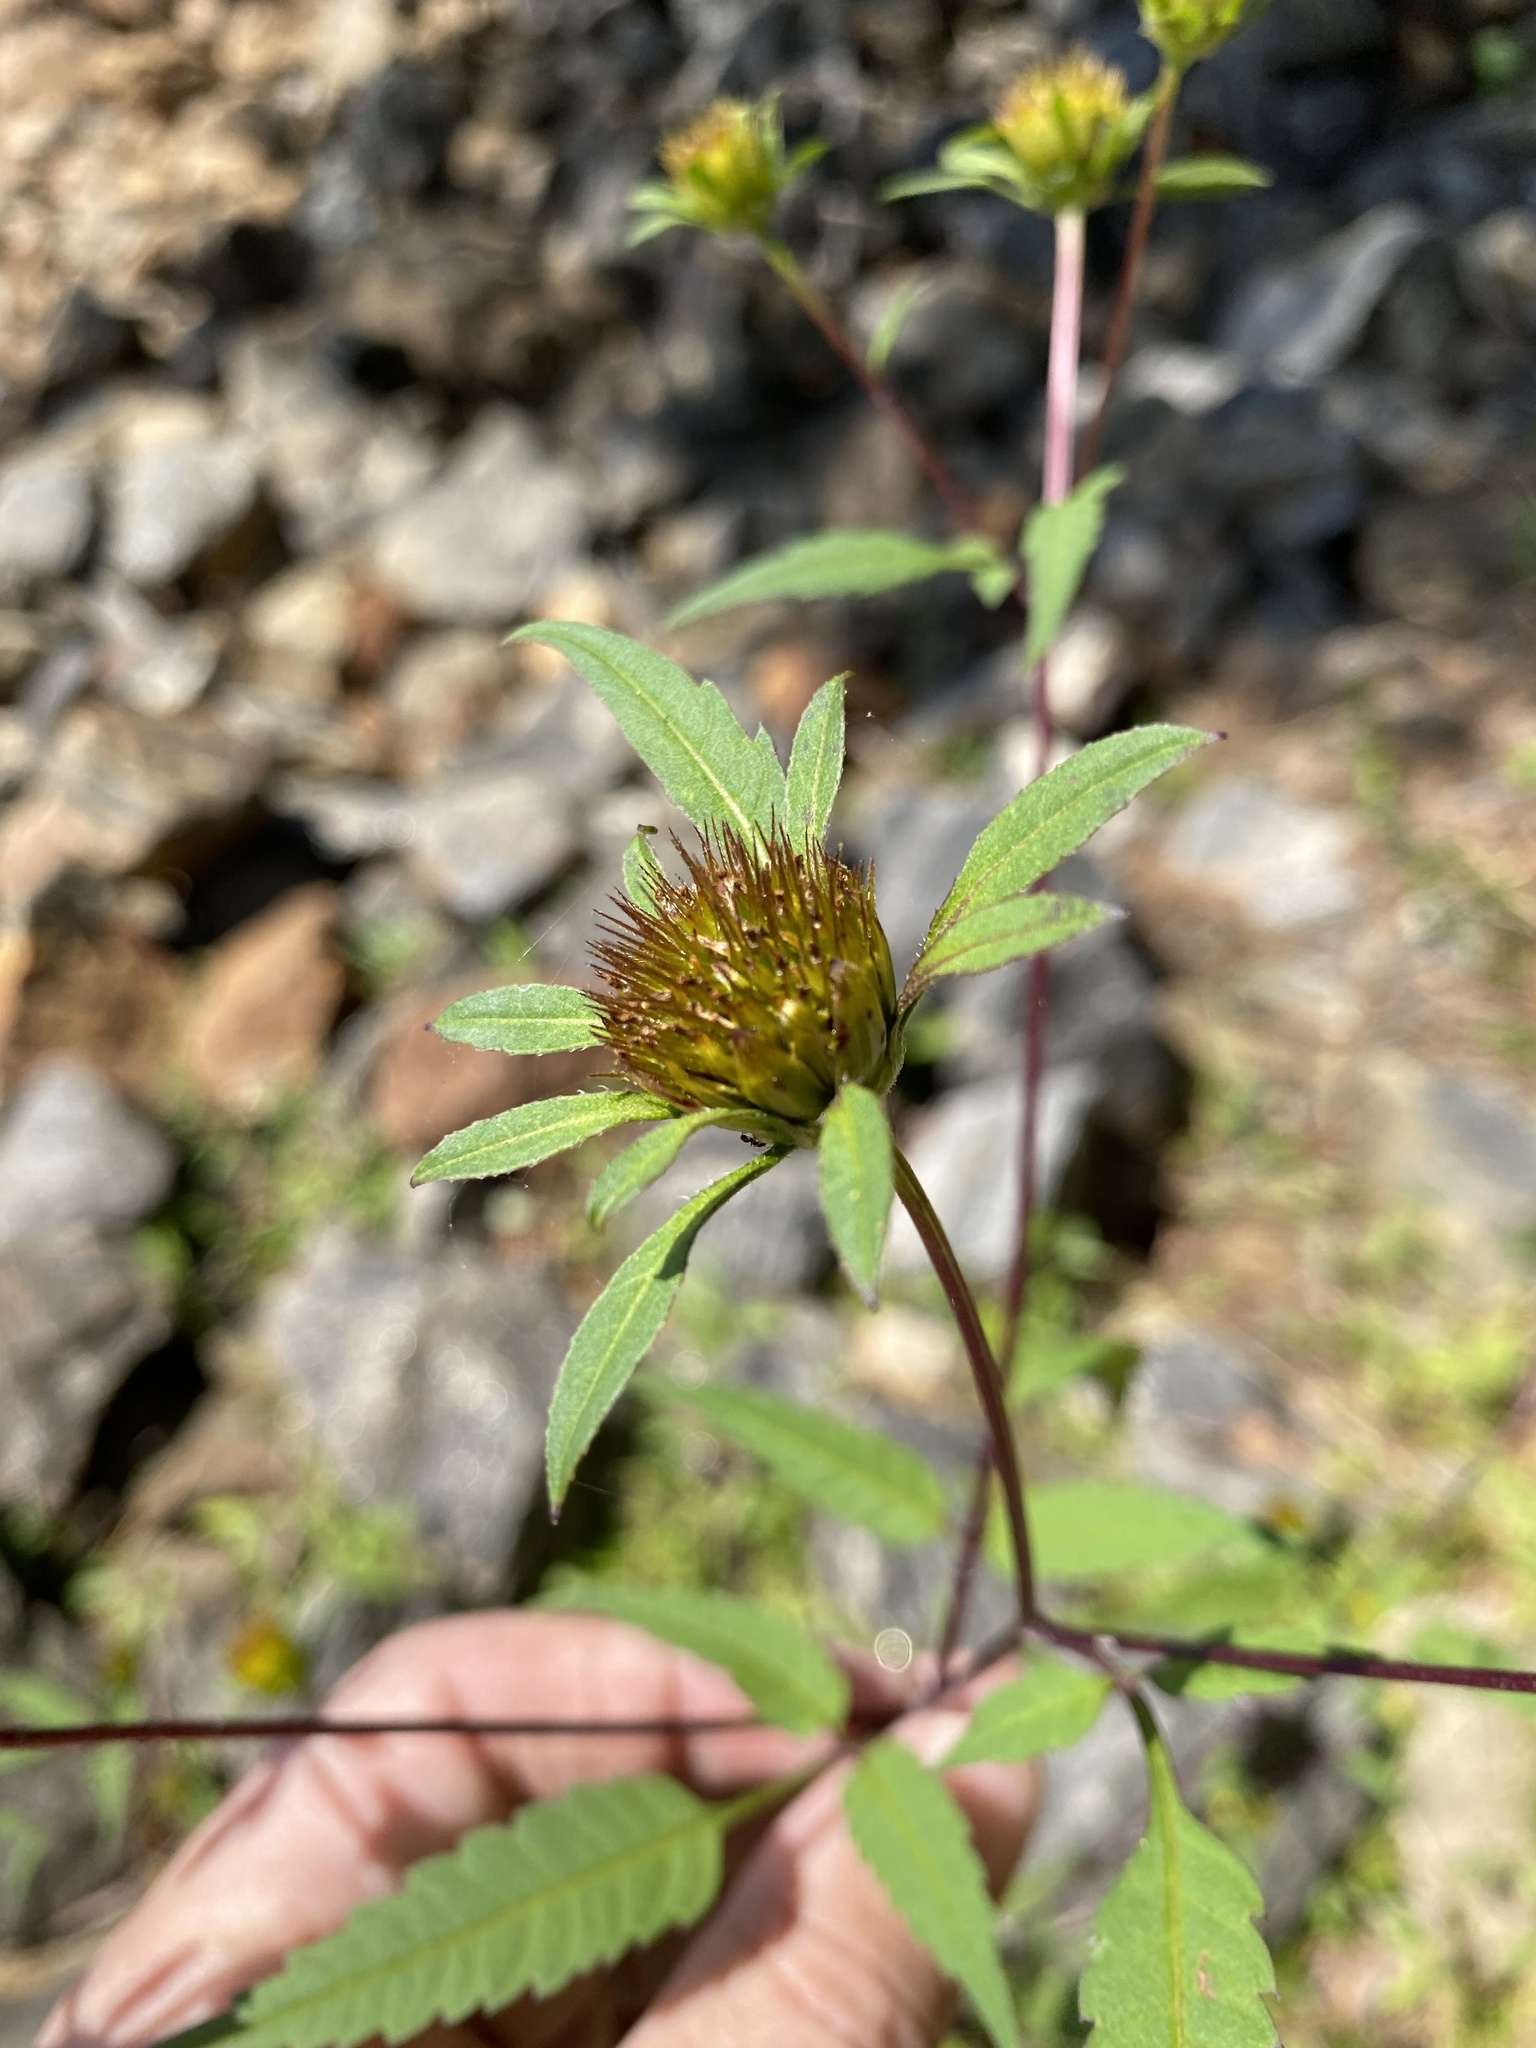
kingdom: Plantae
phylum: Tracheophyta
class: Magnoliopsida
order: Asterales
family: Asteraceae
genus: Bidens
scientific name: Bidens frondosa
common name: Beggarticks
